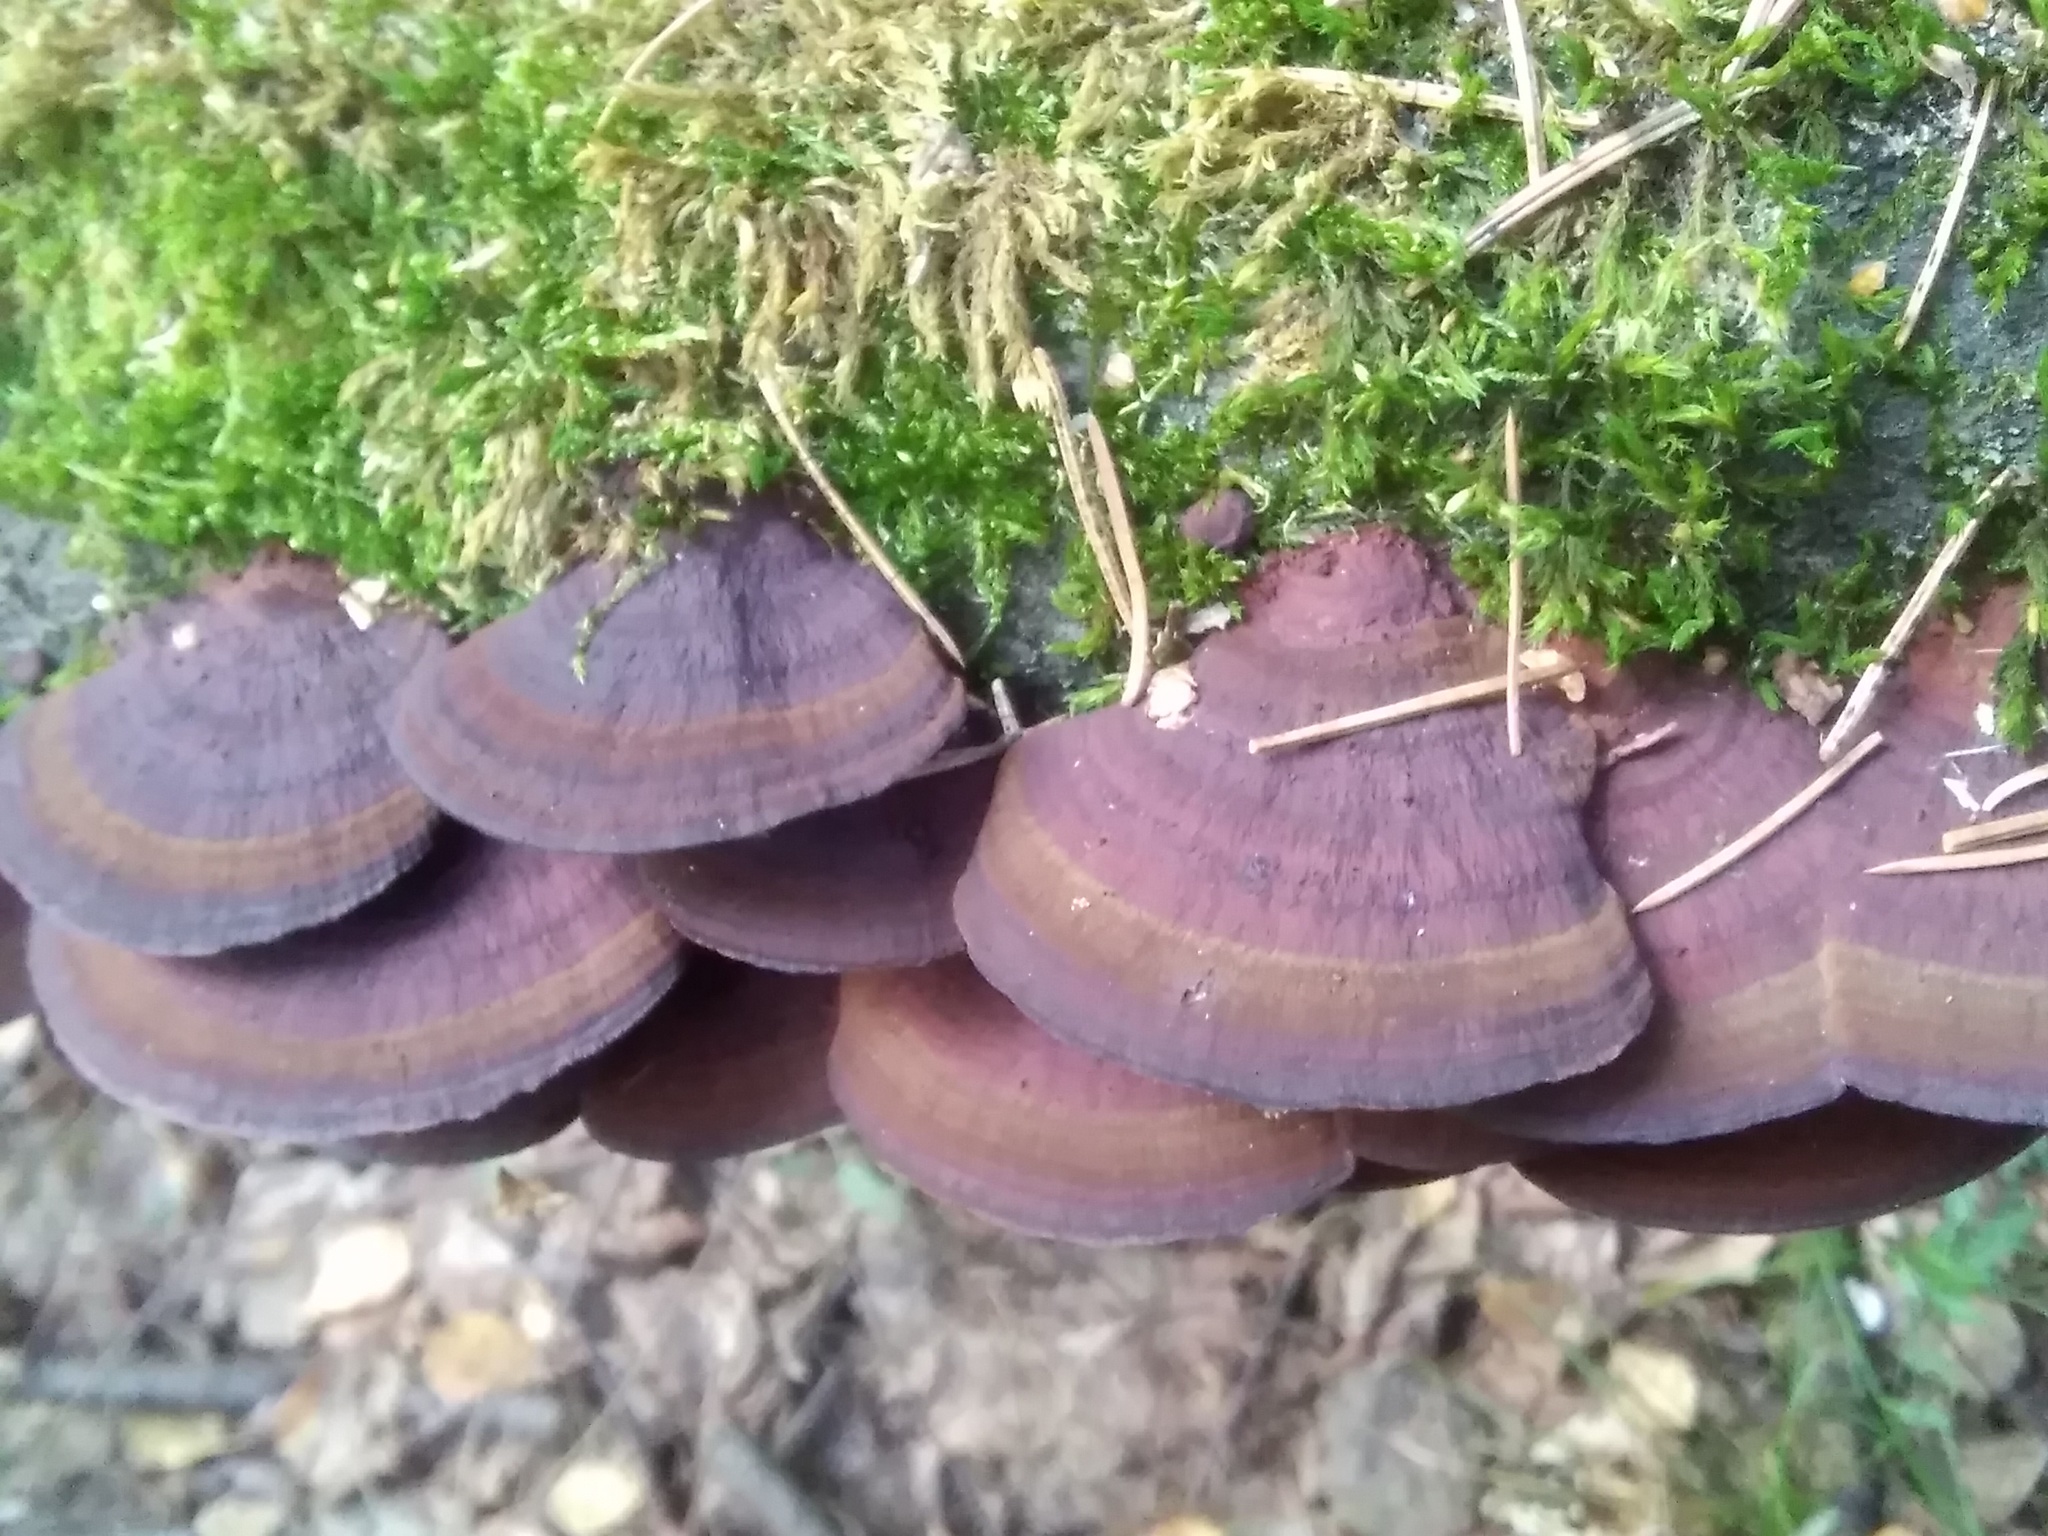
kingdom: Fungi
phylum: Basidiomycota
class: Agaricomycetes
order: Polyporales
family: Polyporaceae
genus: Daedaleopsis
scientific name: Daedaleopsis tricolor
